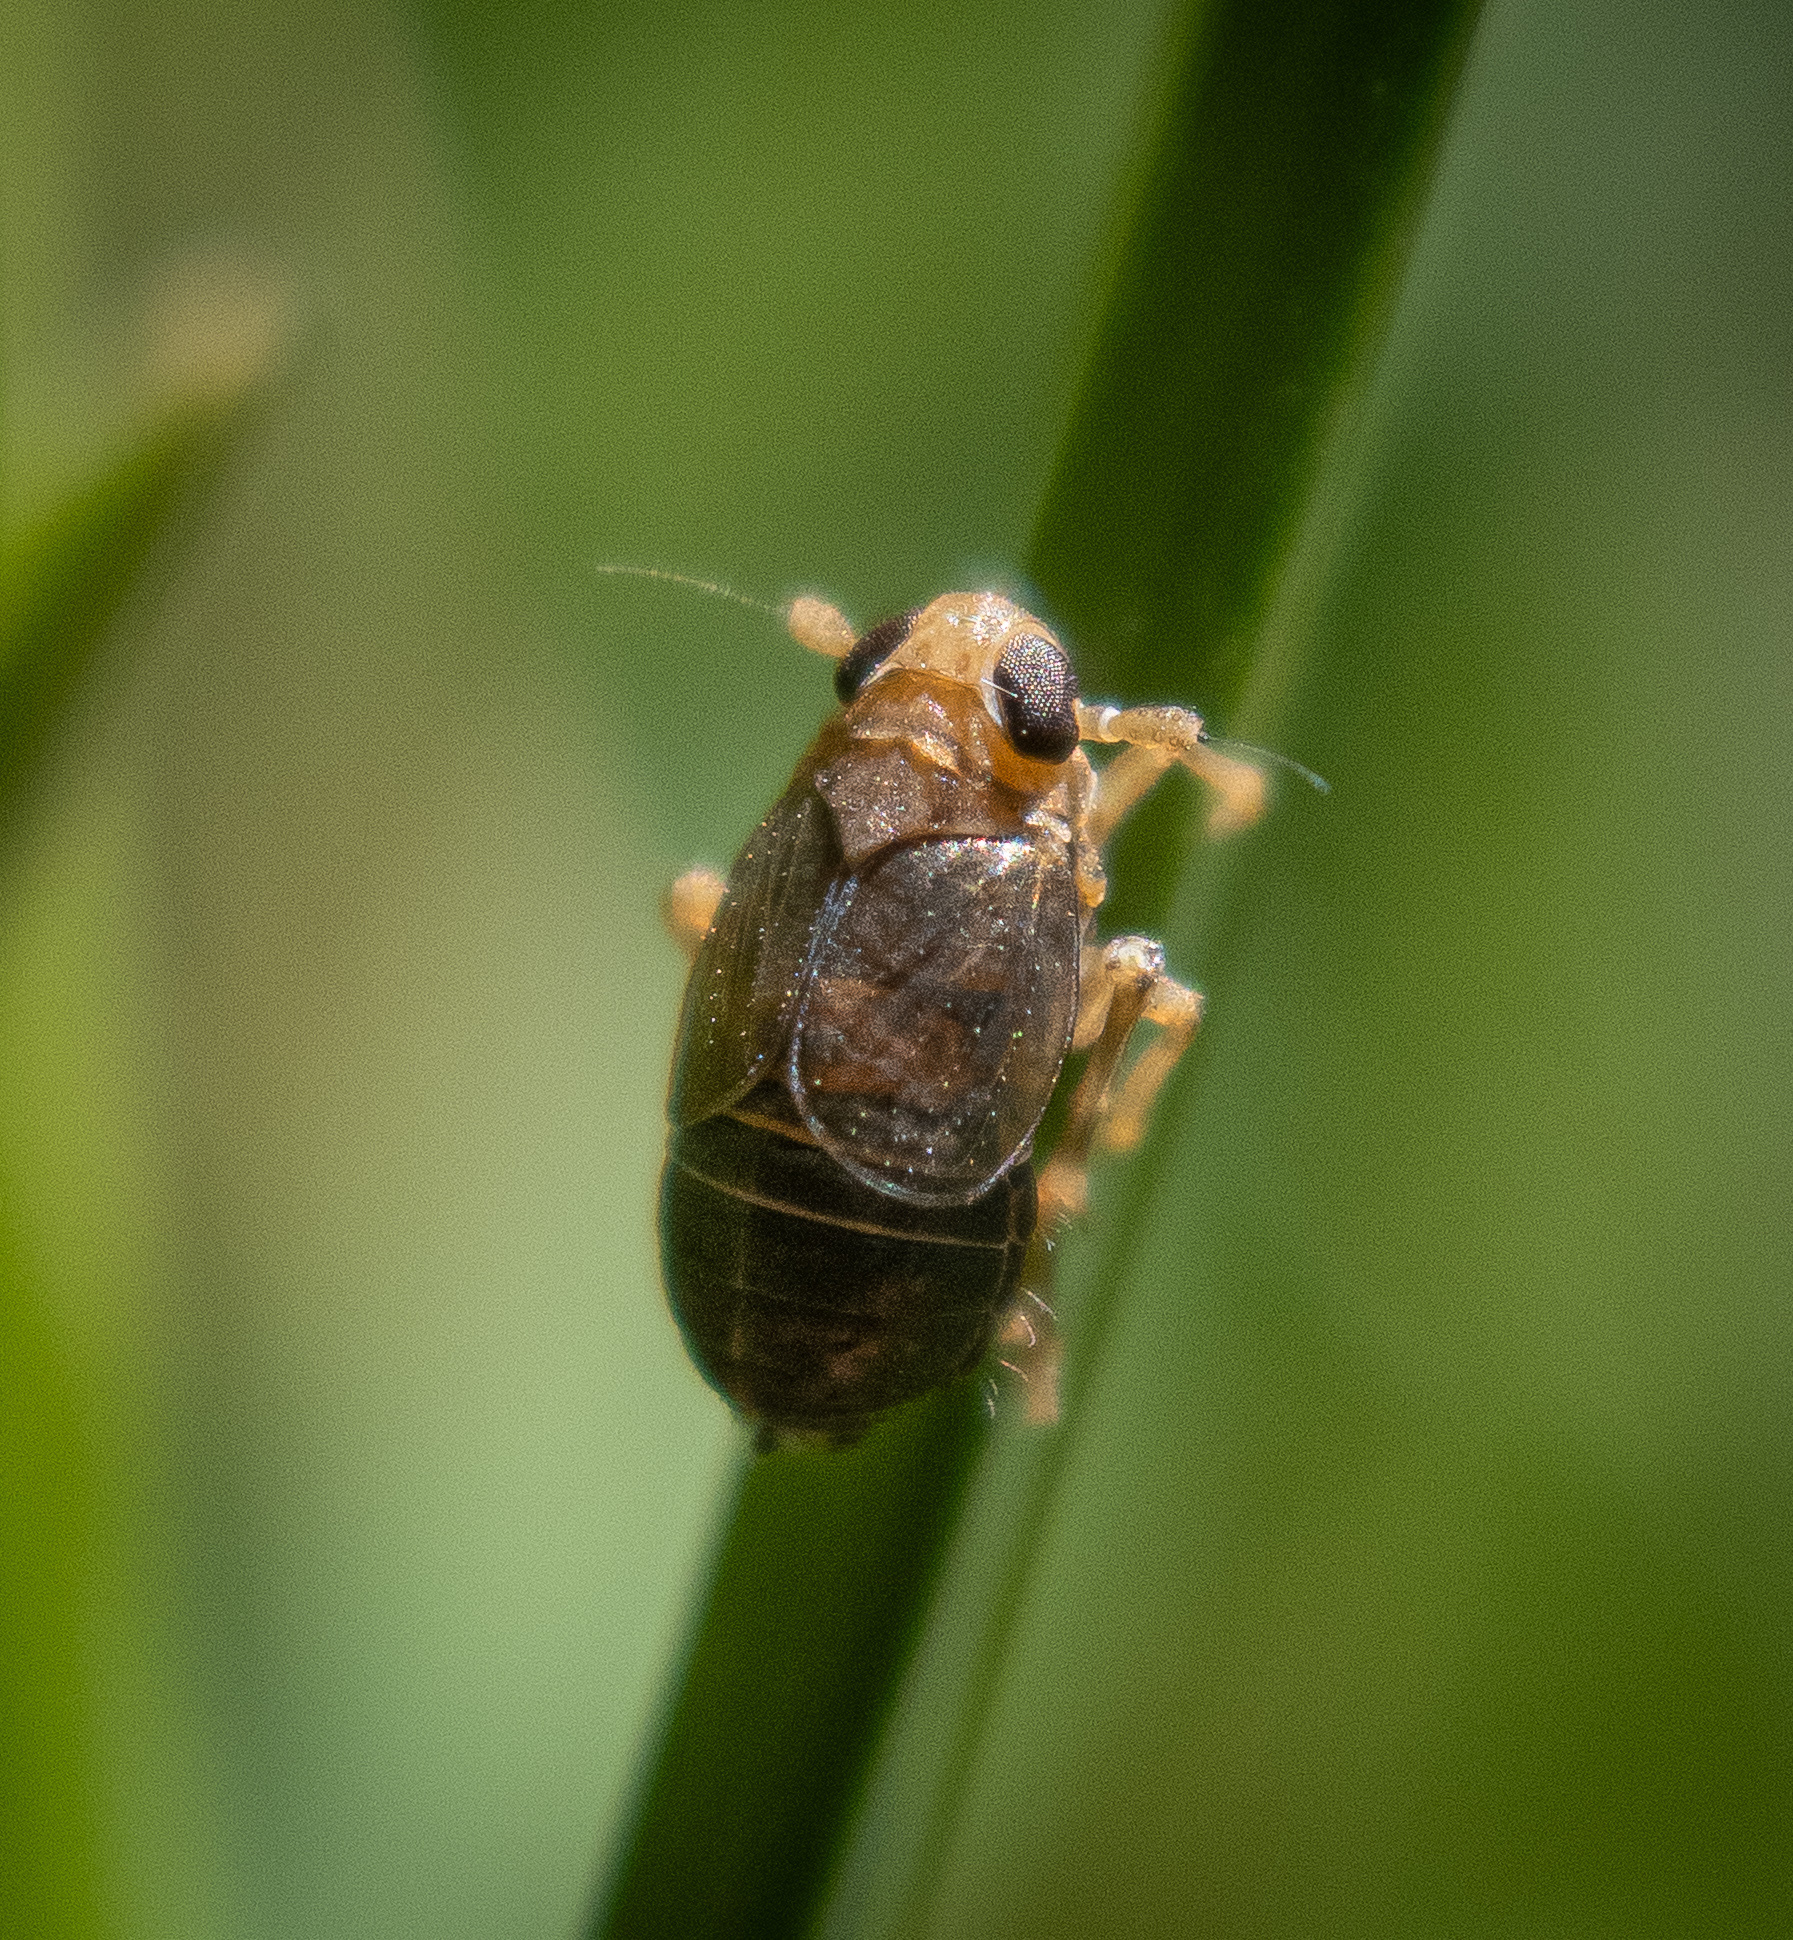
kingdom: Animalia
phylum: Arthropoda
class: Insecta
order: Hemiptera
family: Delphacidae
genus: Kosswigianella
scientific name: Kosswigianella perusta
